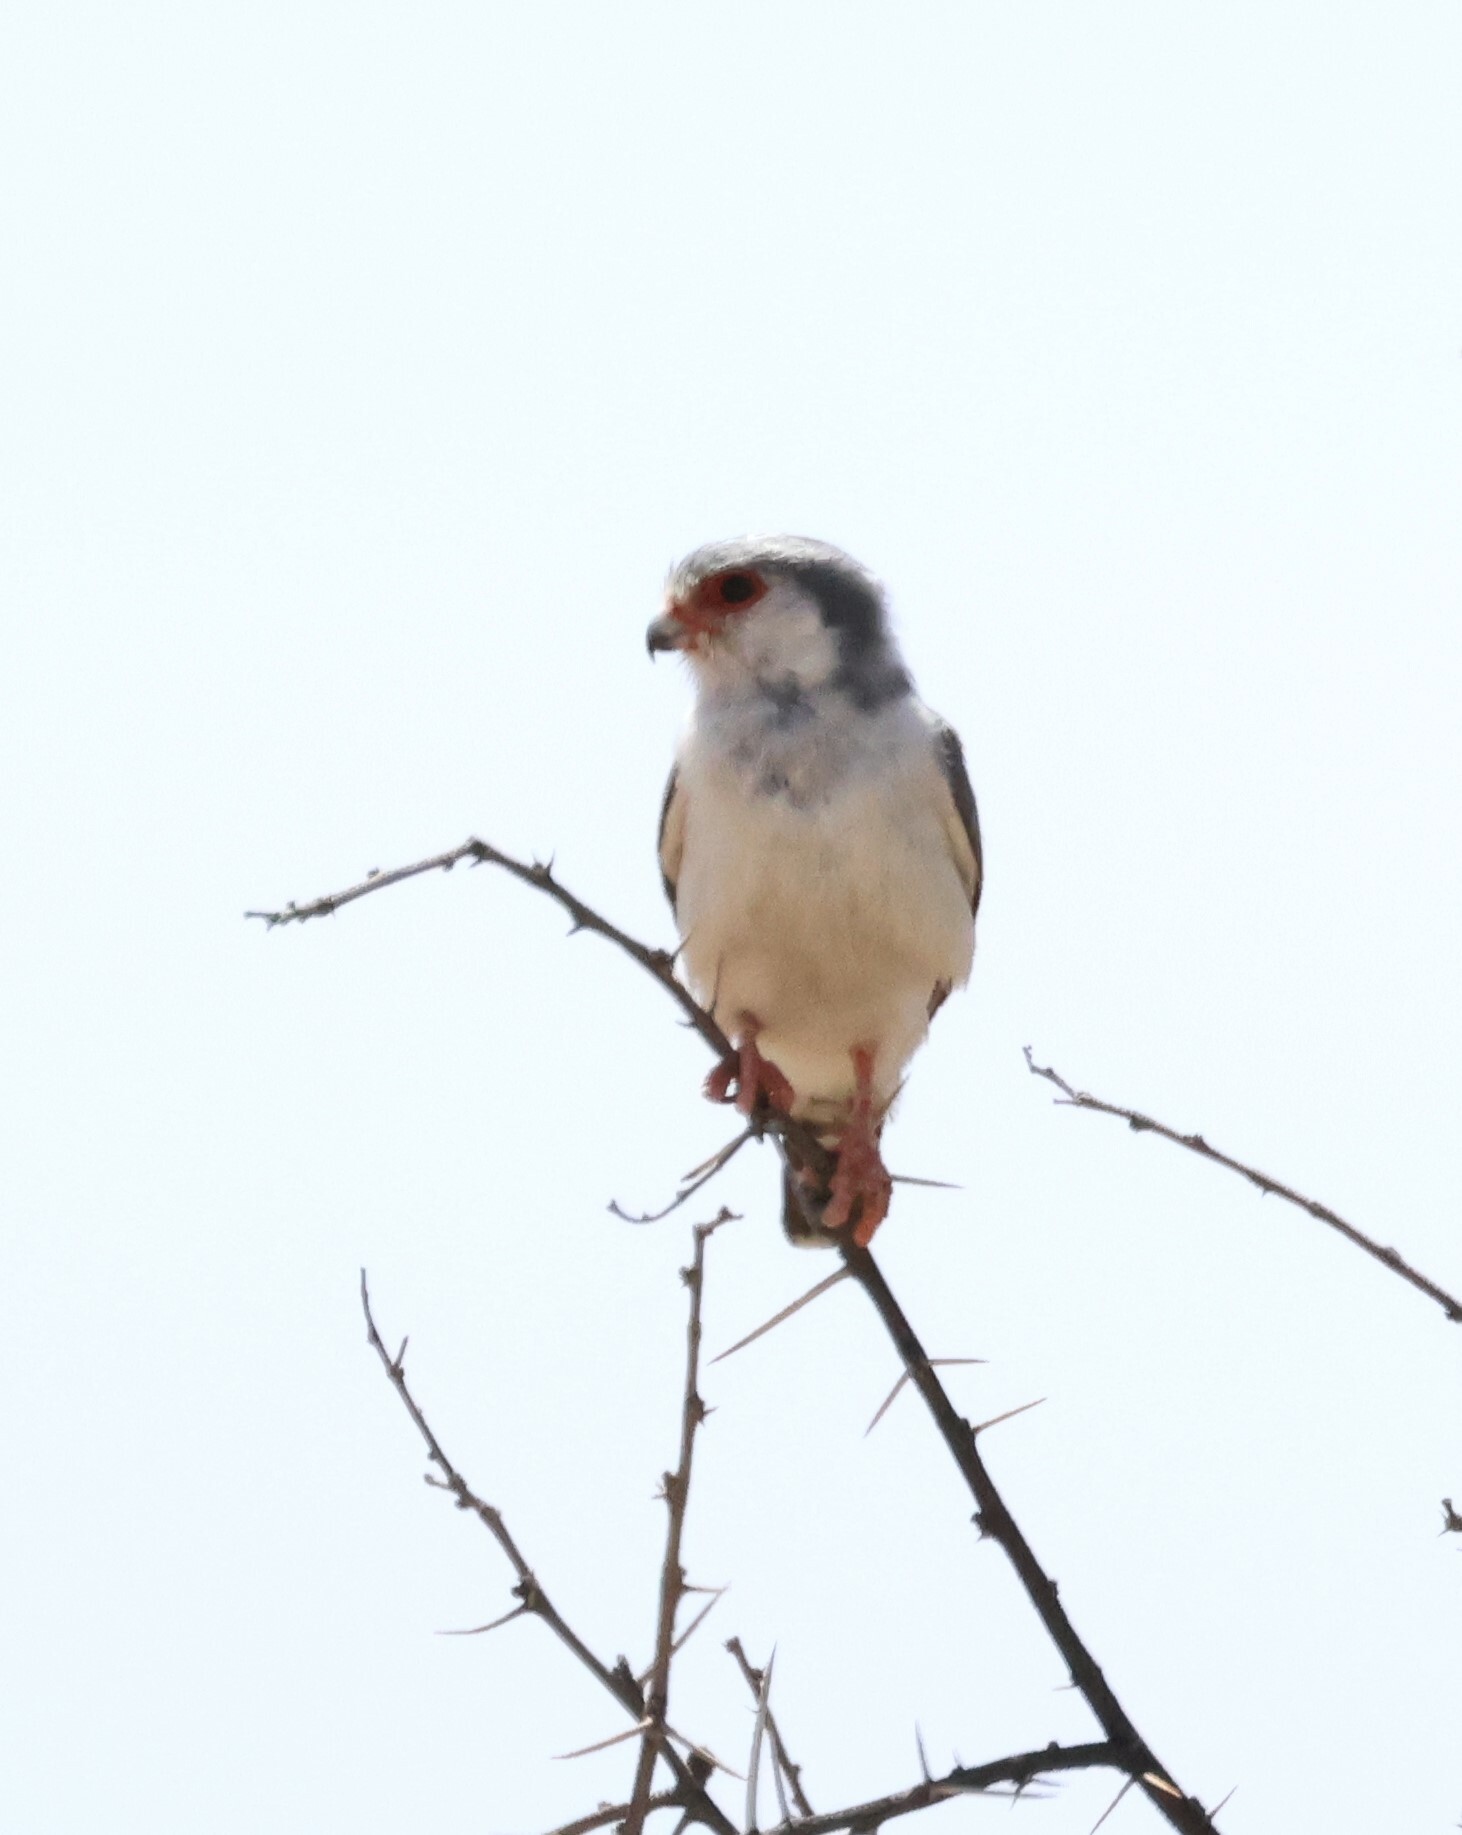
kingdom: Animalia
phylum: Chordata
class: Aves
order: Falconiformes
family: Falconidae
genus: Polihierax
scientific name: Polihierax semitorquatus
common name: Pygmy falcon
